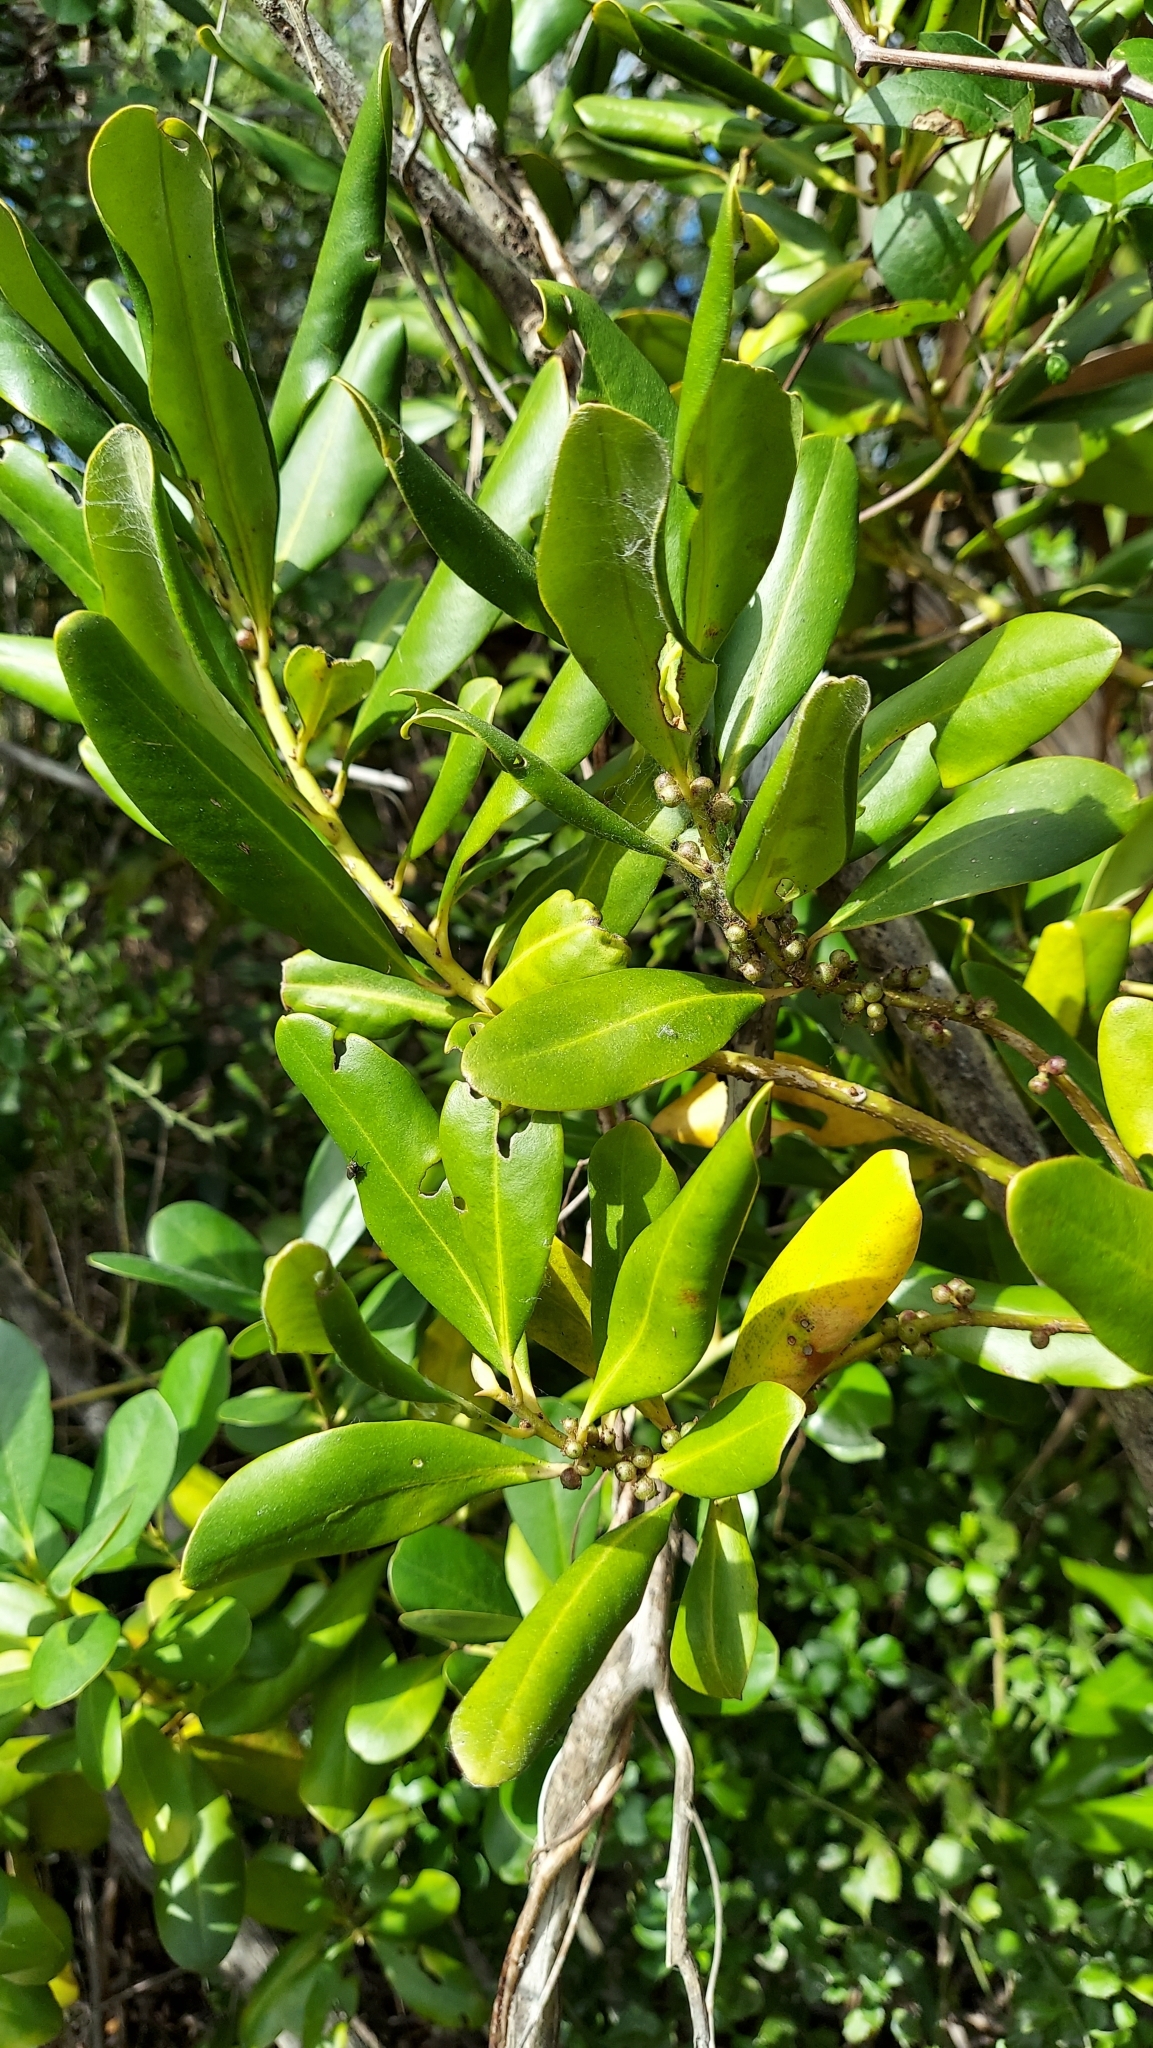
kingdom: Plantae
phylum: Tracheophyta
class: Magnoliopsida
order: Ericales
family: Primulaceae
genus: Myrsine
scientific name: Myrsine floridana
